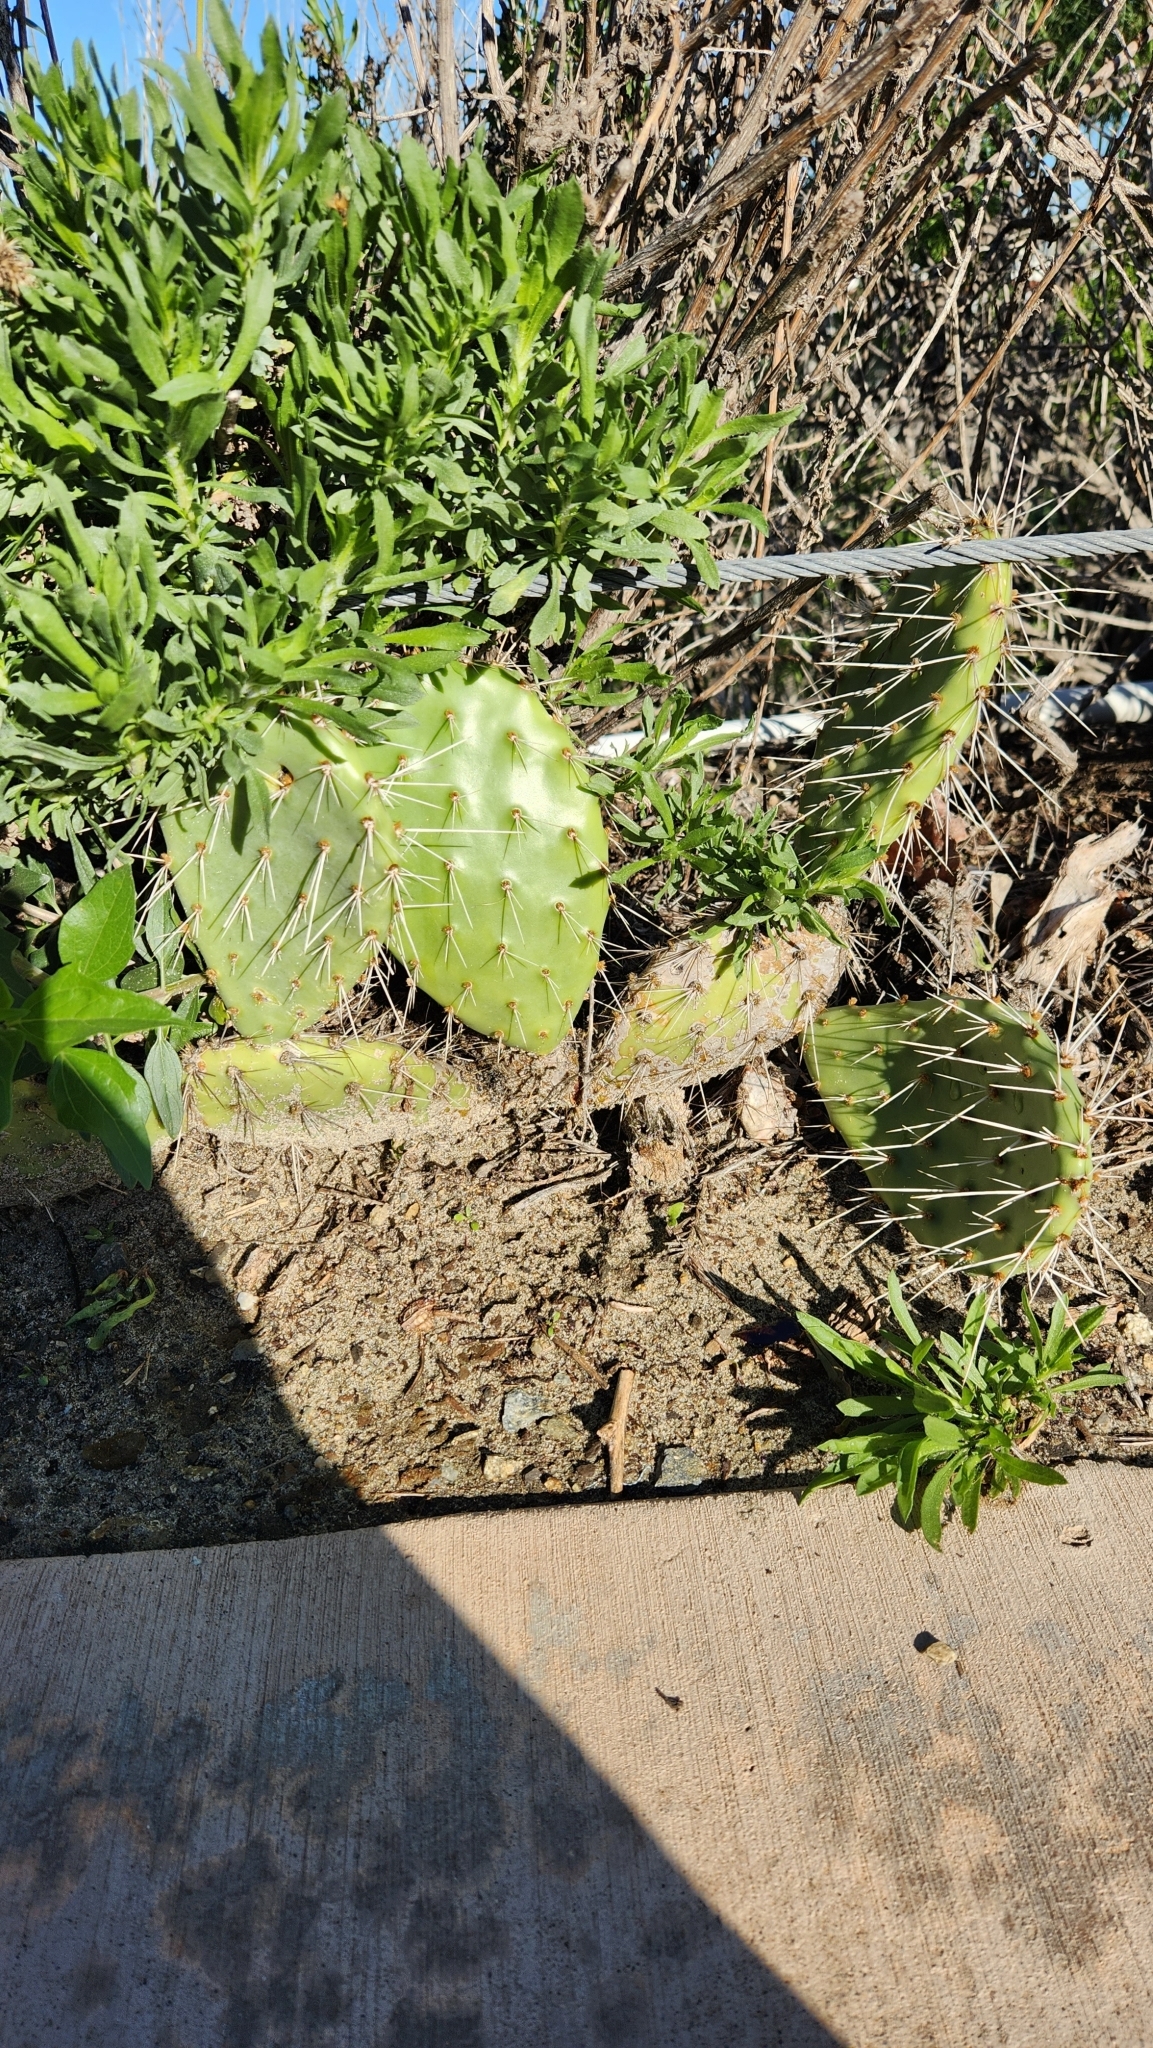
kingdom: Plantae
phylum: Tracheophyta
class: Magnoliopsida
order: Caryophyllales
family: Cactaceae
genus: Opuntia
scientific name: Opuntia littoralis
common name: Coastal prickly-pear
